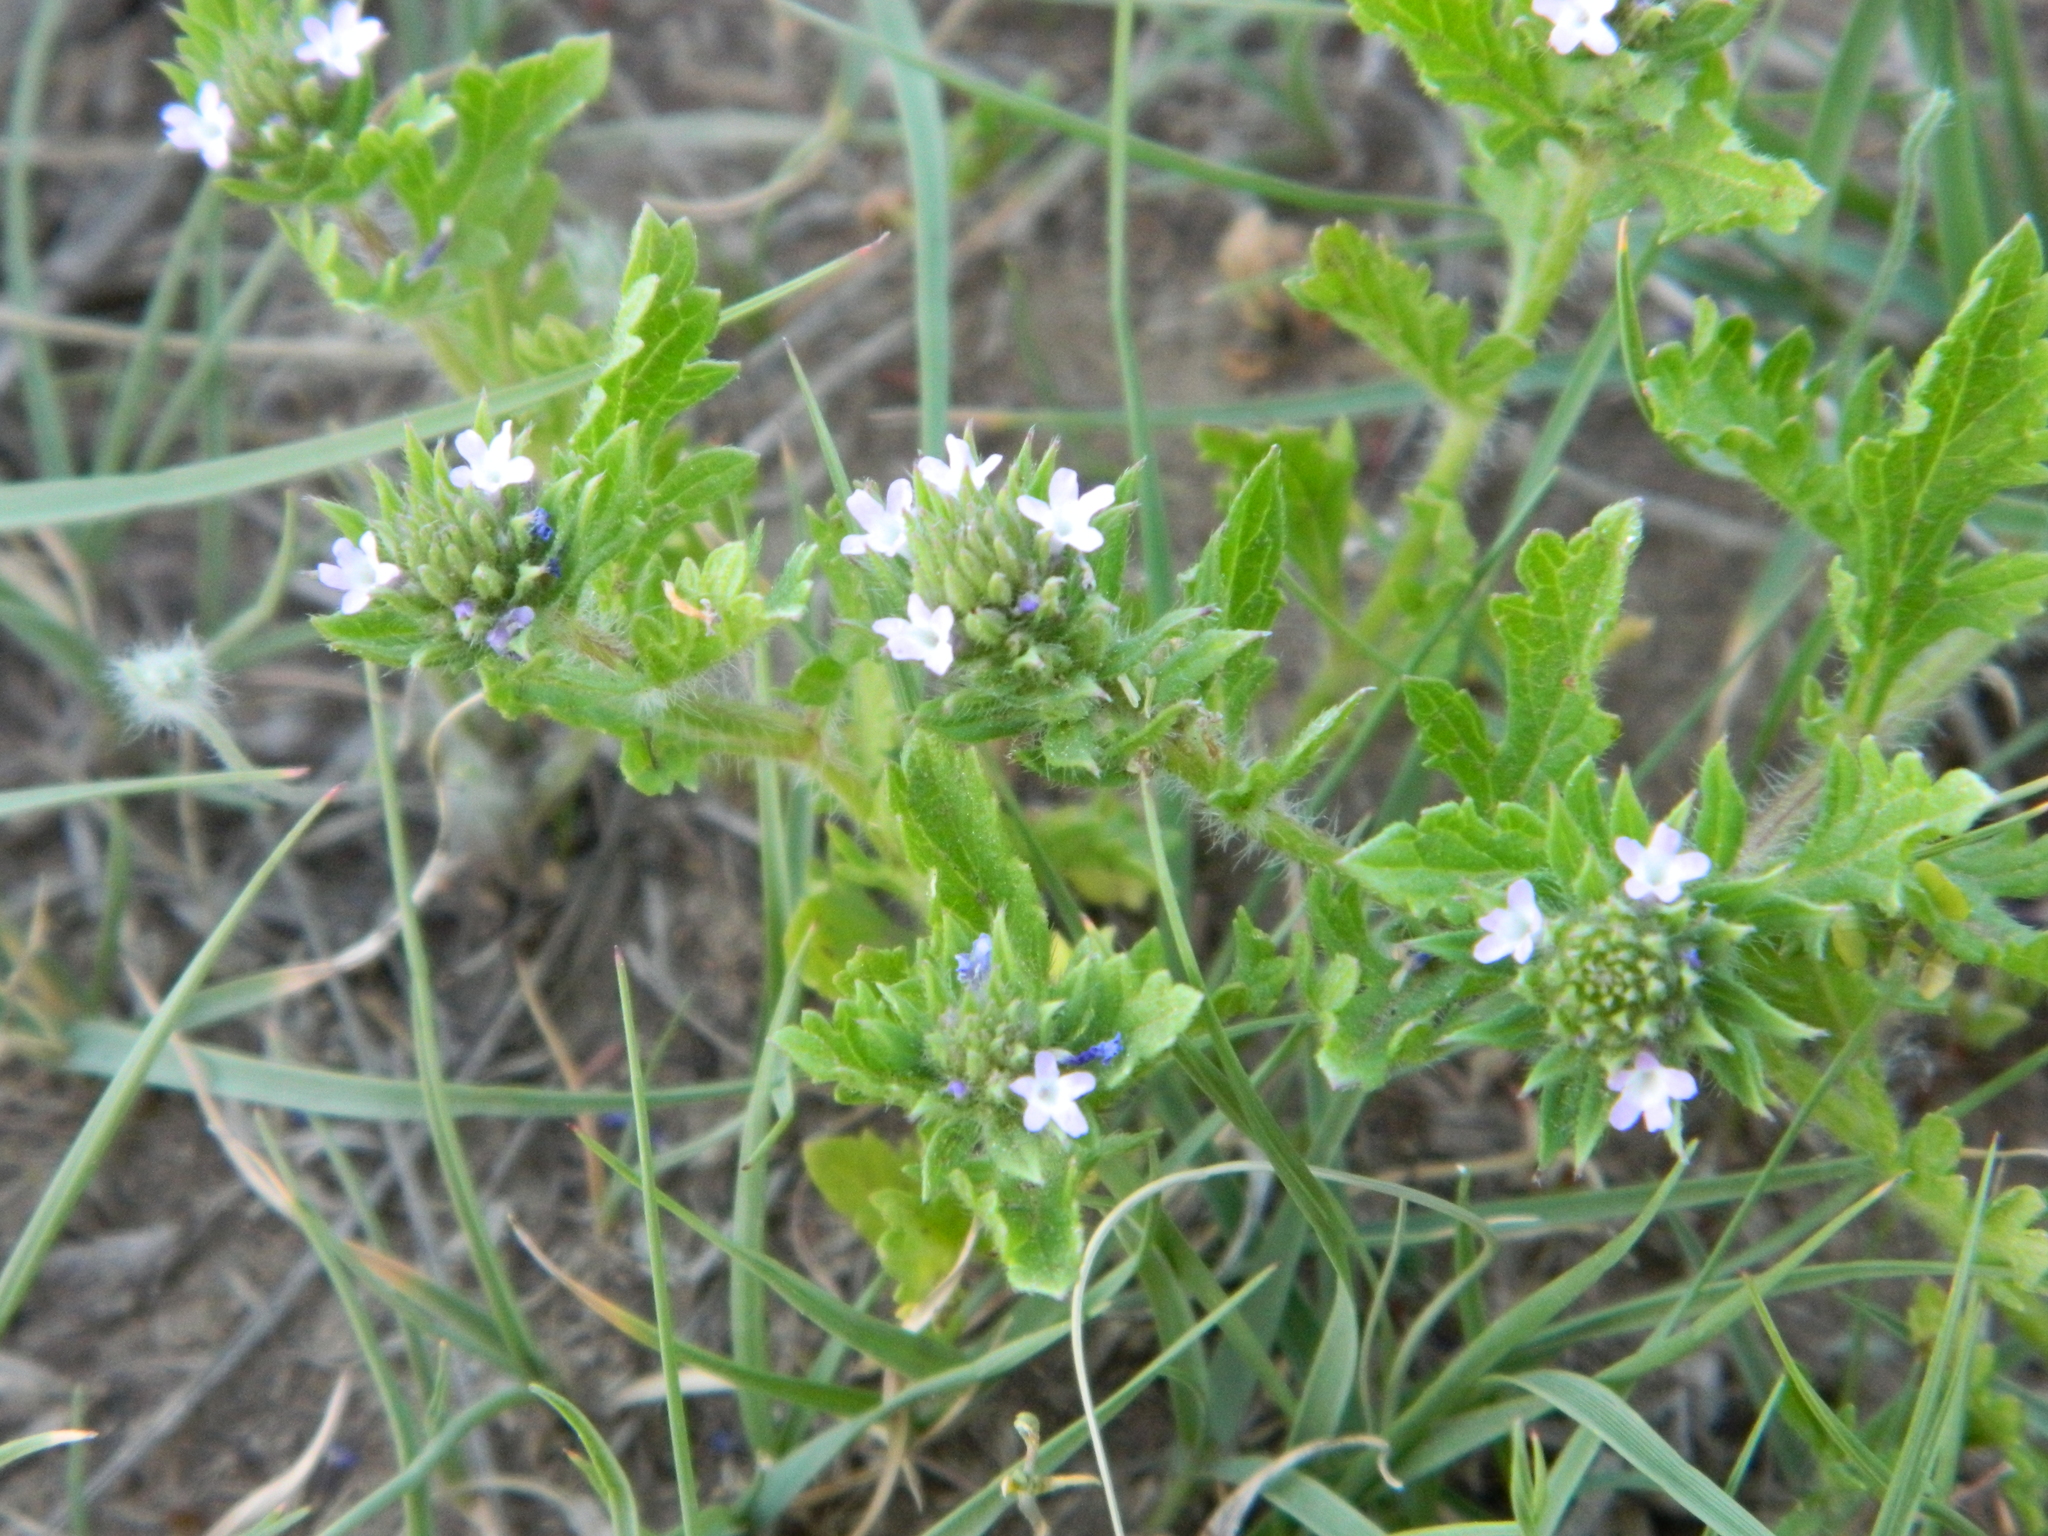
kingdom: Plantae
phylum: Tracheophyta
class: Magnoliopsida
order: Lamiales
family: Verbenaceae
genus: Verbena
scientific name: Verbena bracteata
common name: Bracted vervain
